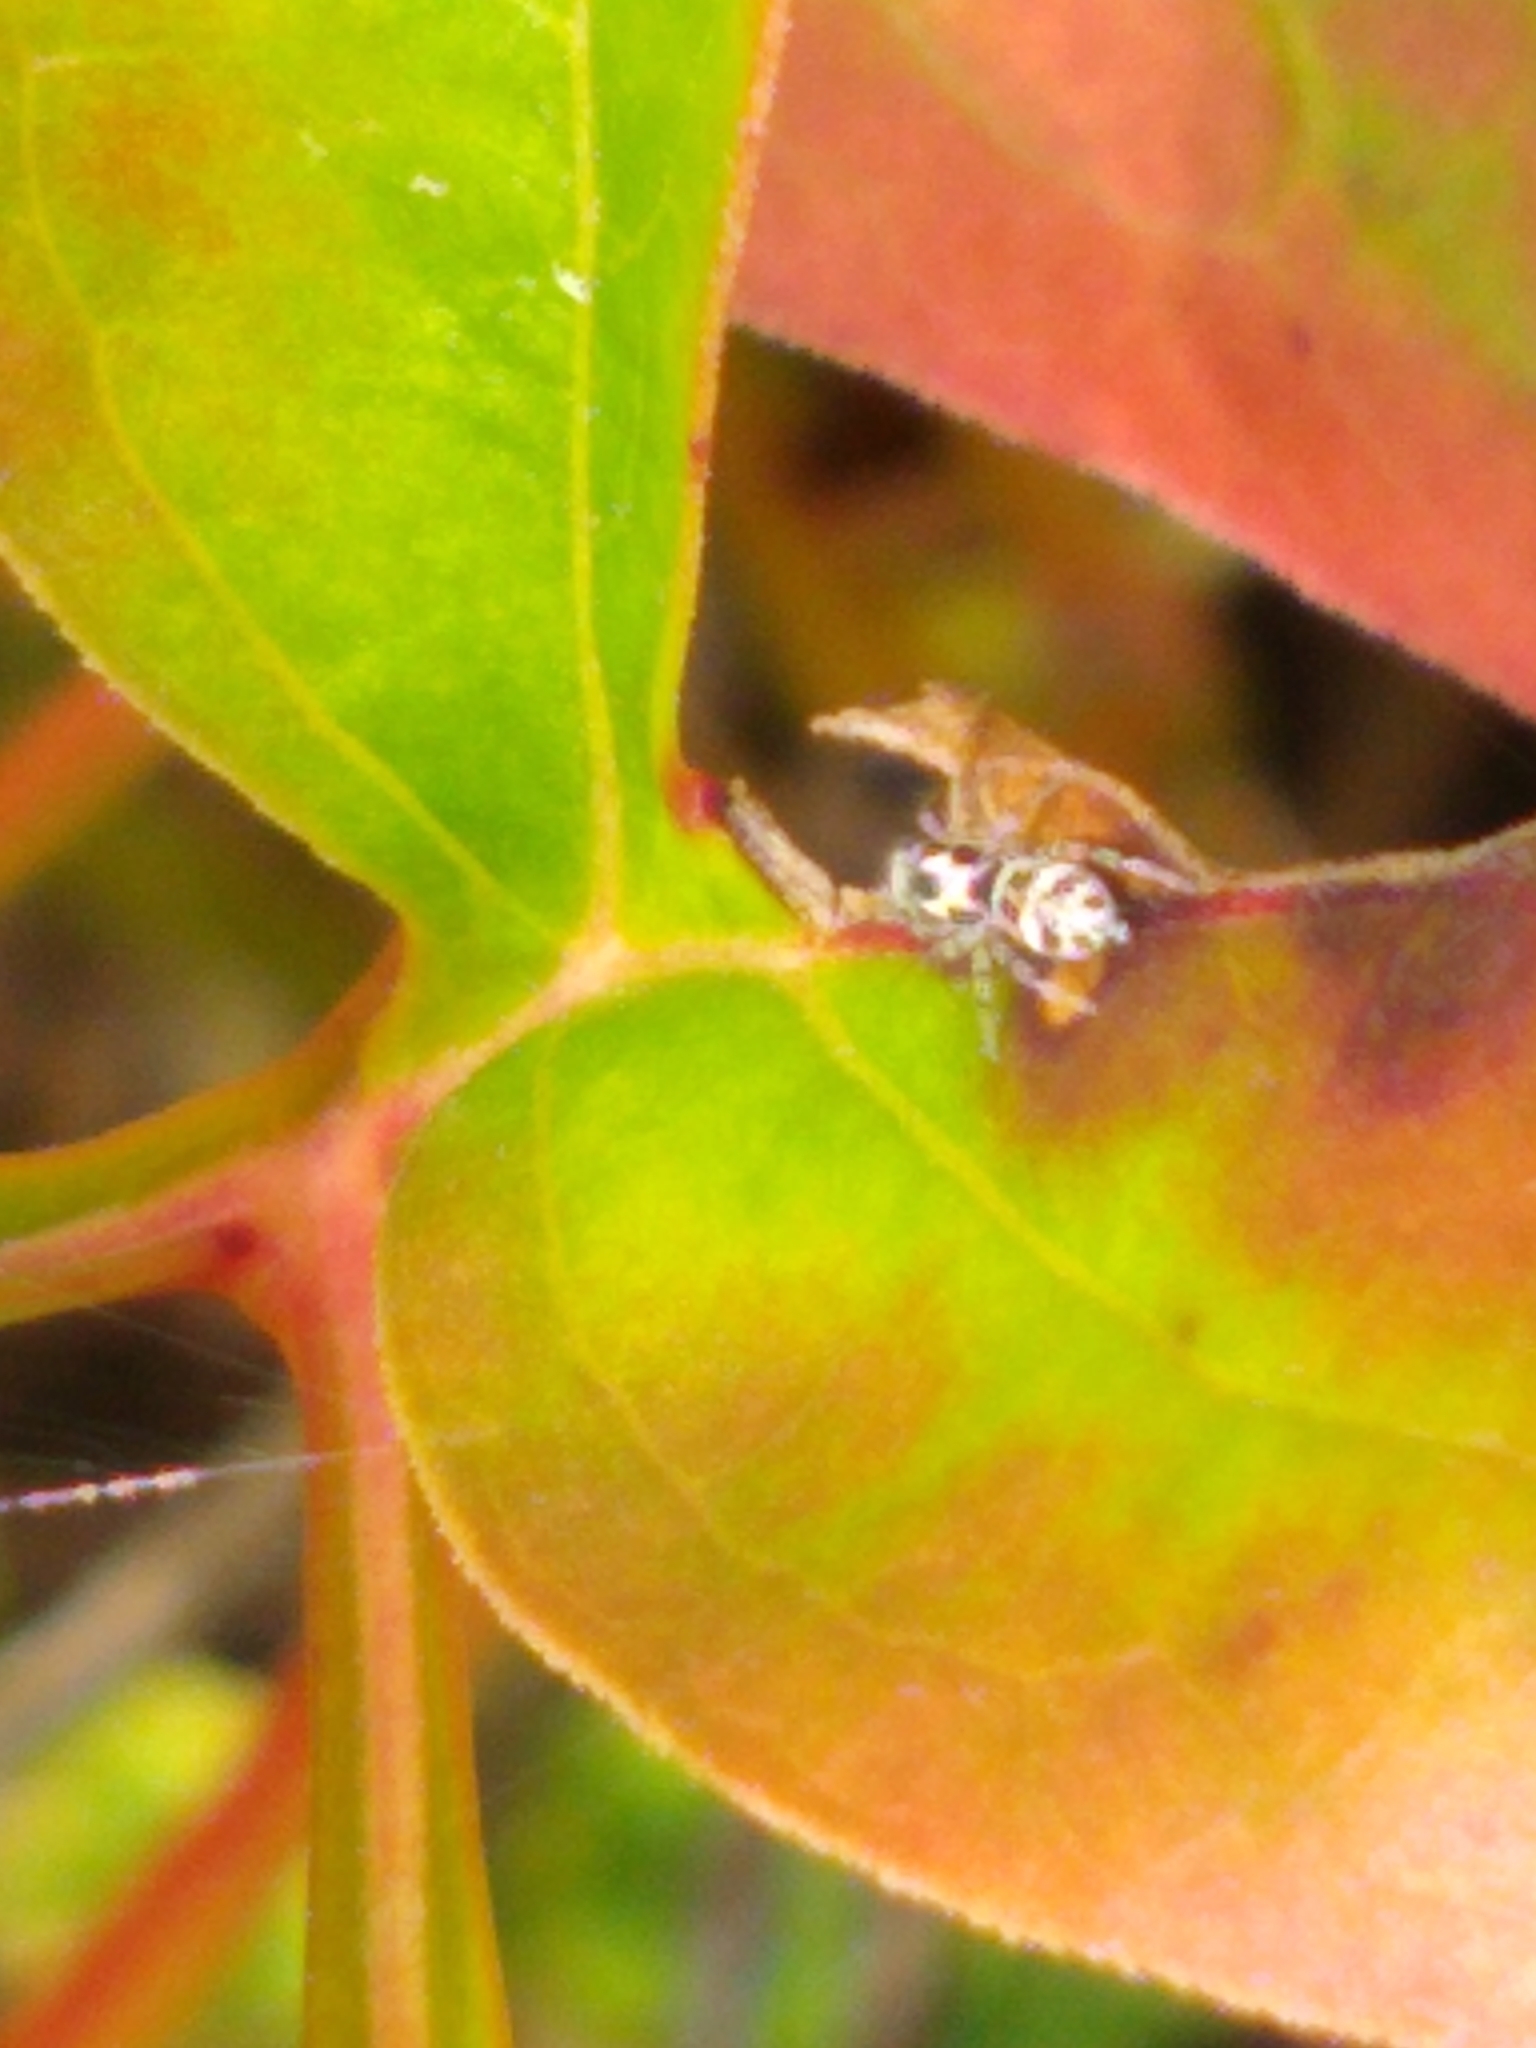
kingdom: Animalia
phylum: Arthropoda
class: Arachnida
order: Araneae
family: Salticidae
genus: Salticus
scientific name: Salticus scenicus
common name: Zebra jumper
